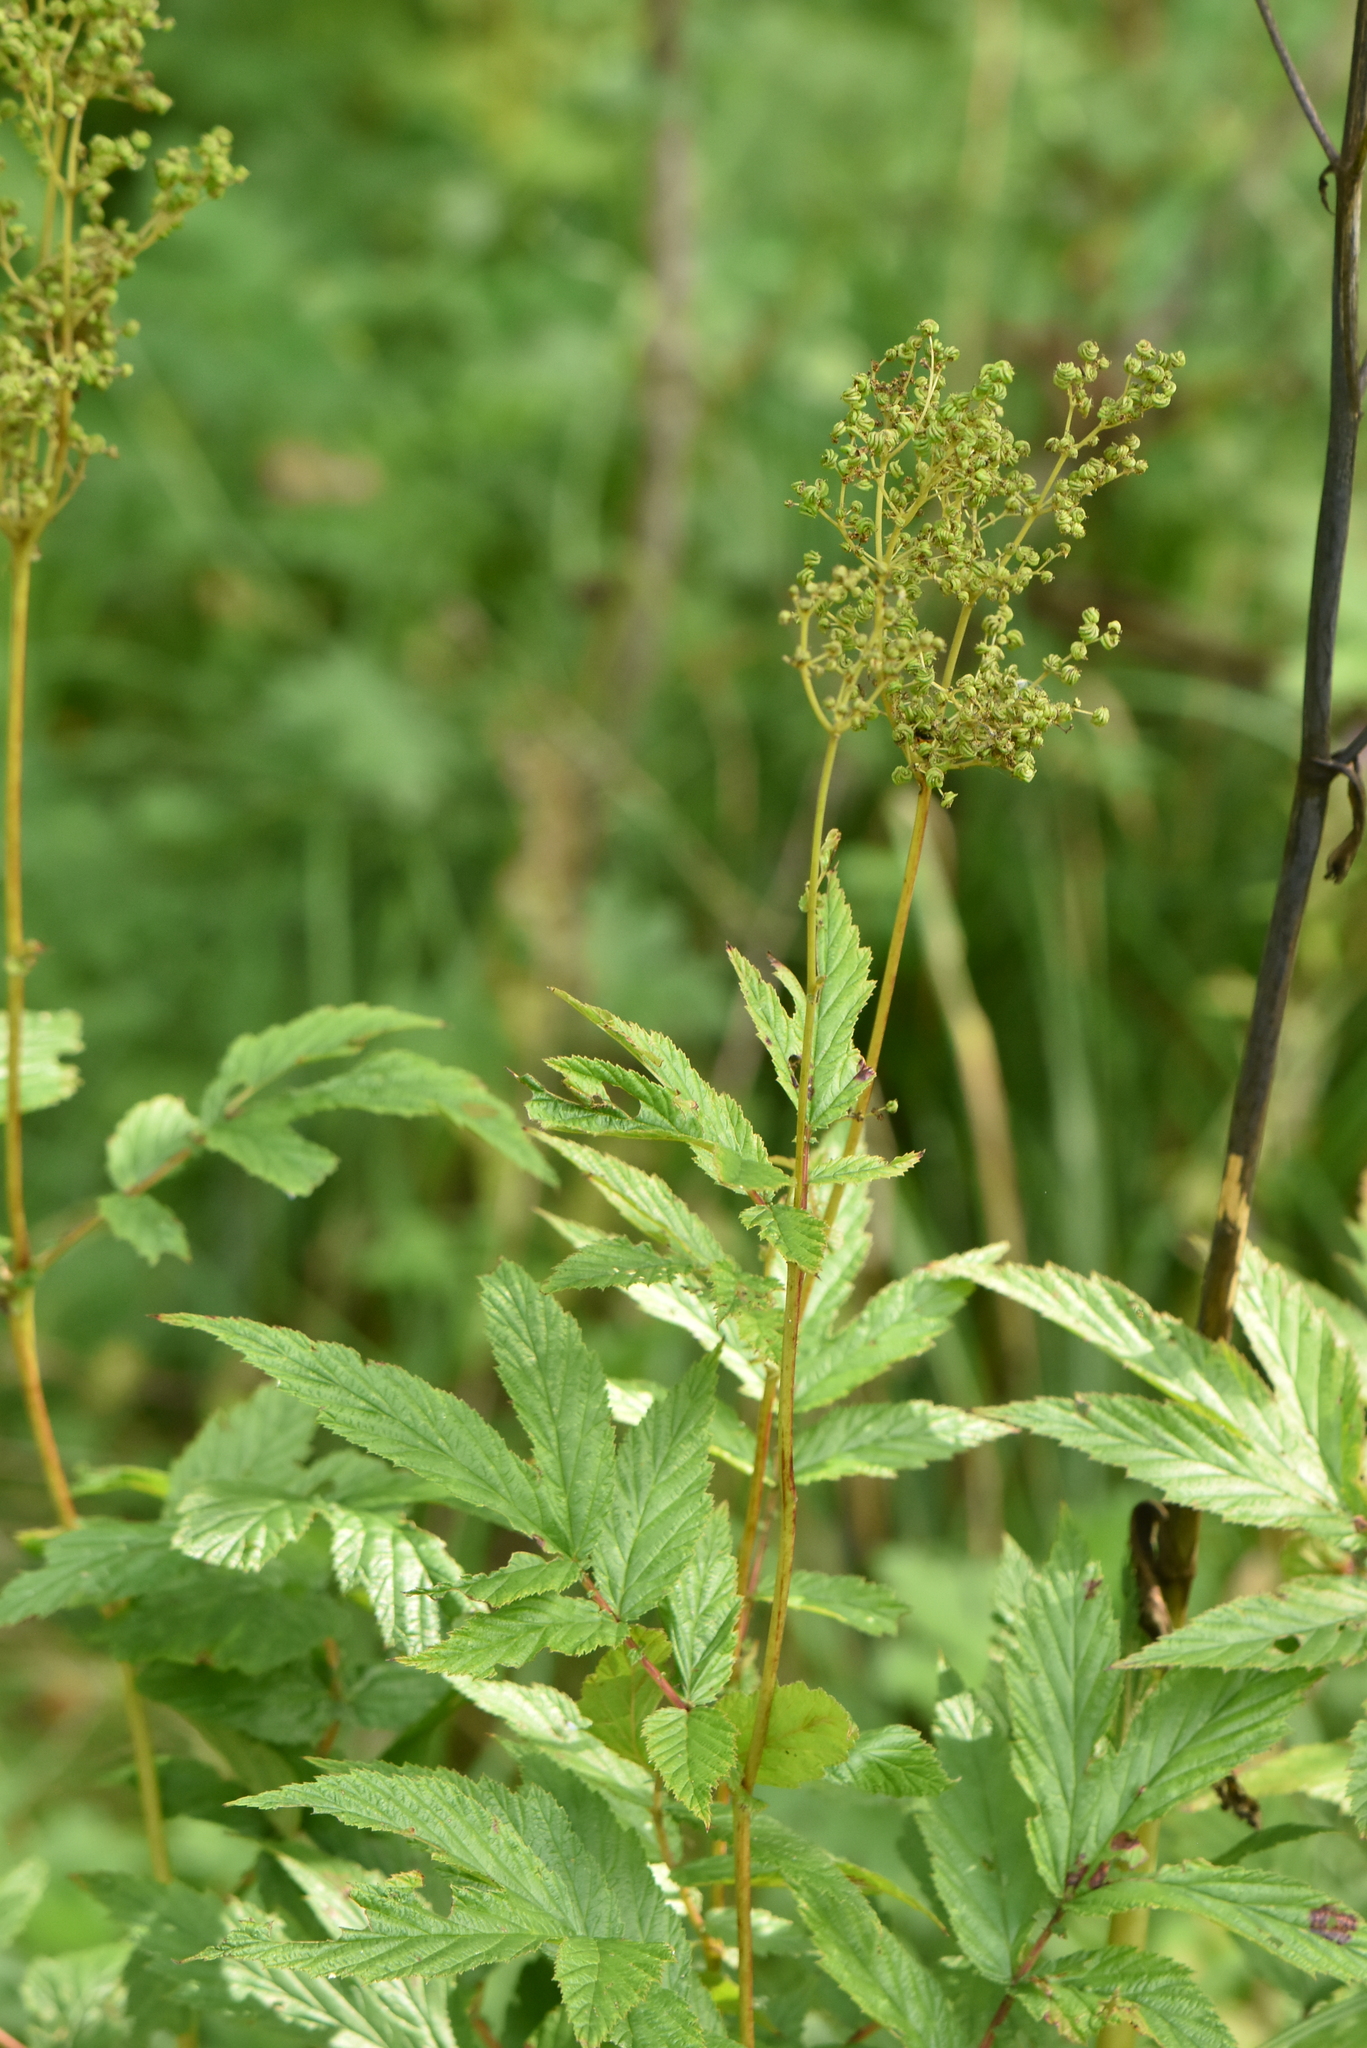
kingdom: Plantae
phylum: Tracheophyta
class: Magnoliopsida
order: Rosales
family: Rosaceae
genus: Filipendula
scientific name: Filipendula ulmaria
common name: Meadowsweet
